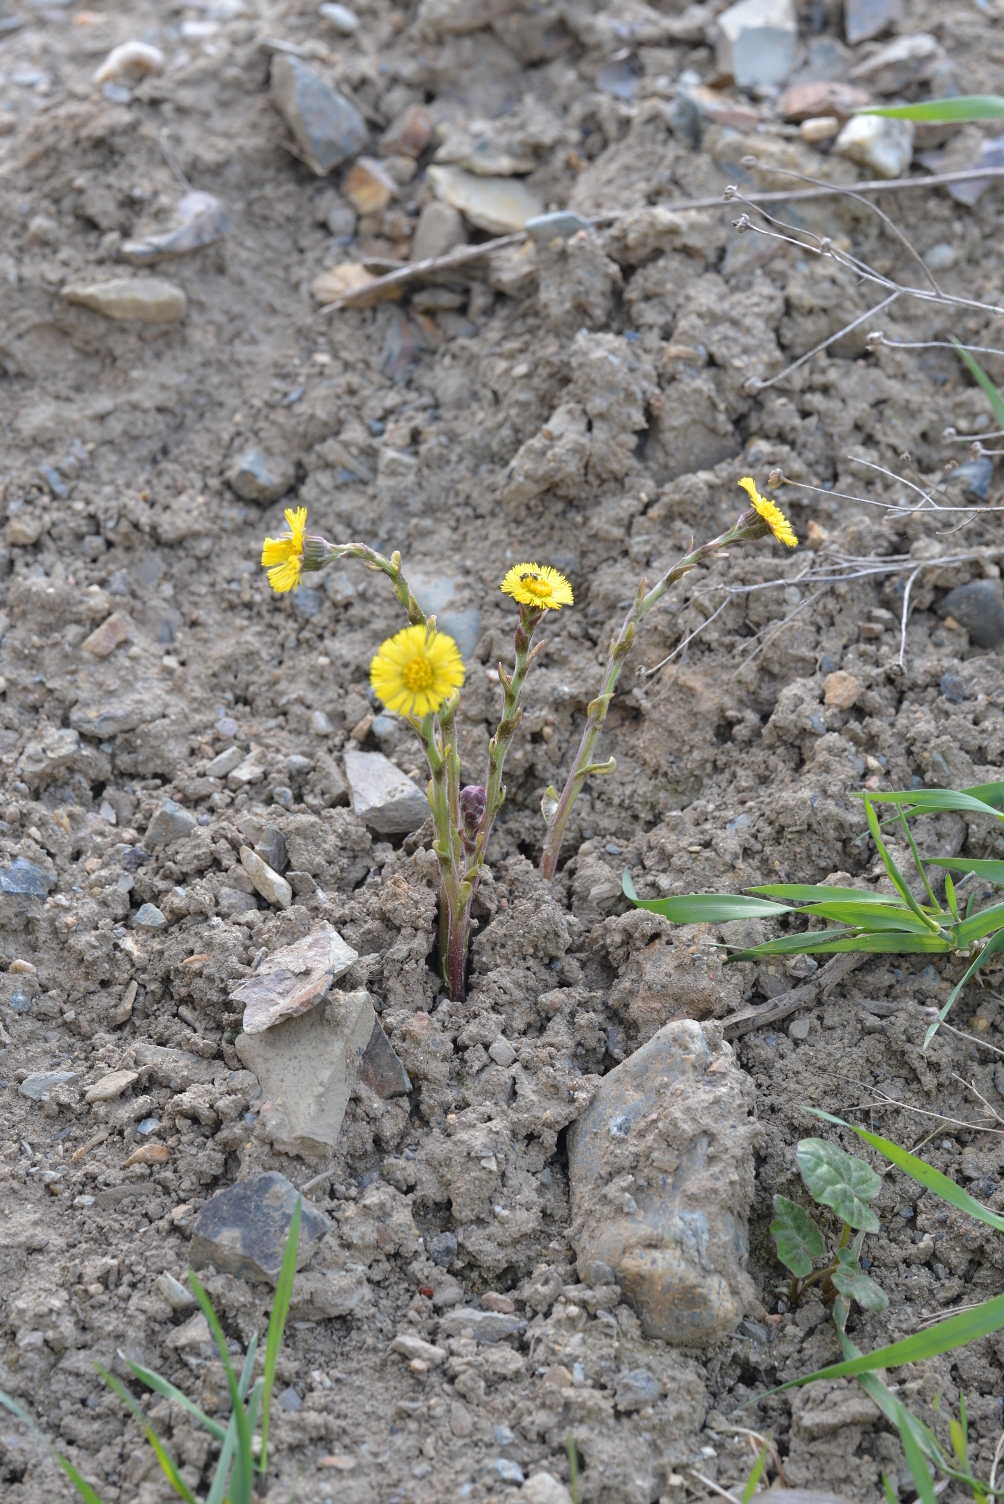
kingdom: Plantae
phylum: Tracheophyta
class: Magnoliopsida
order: Asterales
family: Asteraceae
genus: Tussilago
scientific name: Tussilago farfara
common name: Coltsfoot
